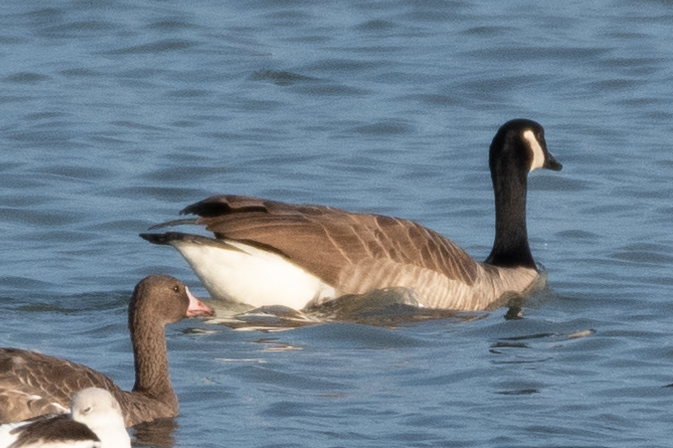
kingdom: Animalia
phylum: Chordata
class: Aves
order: Anseriformes
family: Anatidae
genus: Branta
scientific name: Branta canadensis
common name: Canada goose
